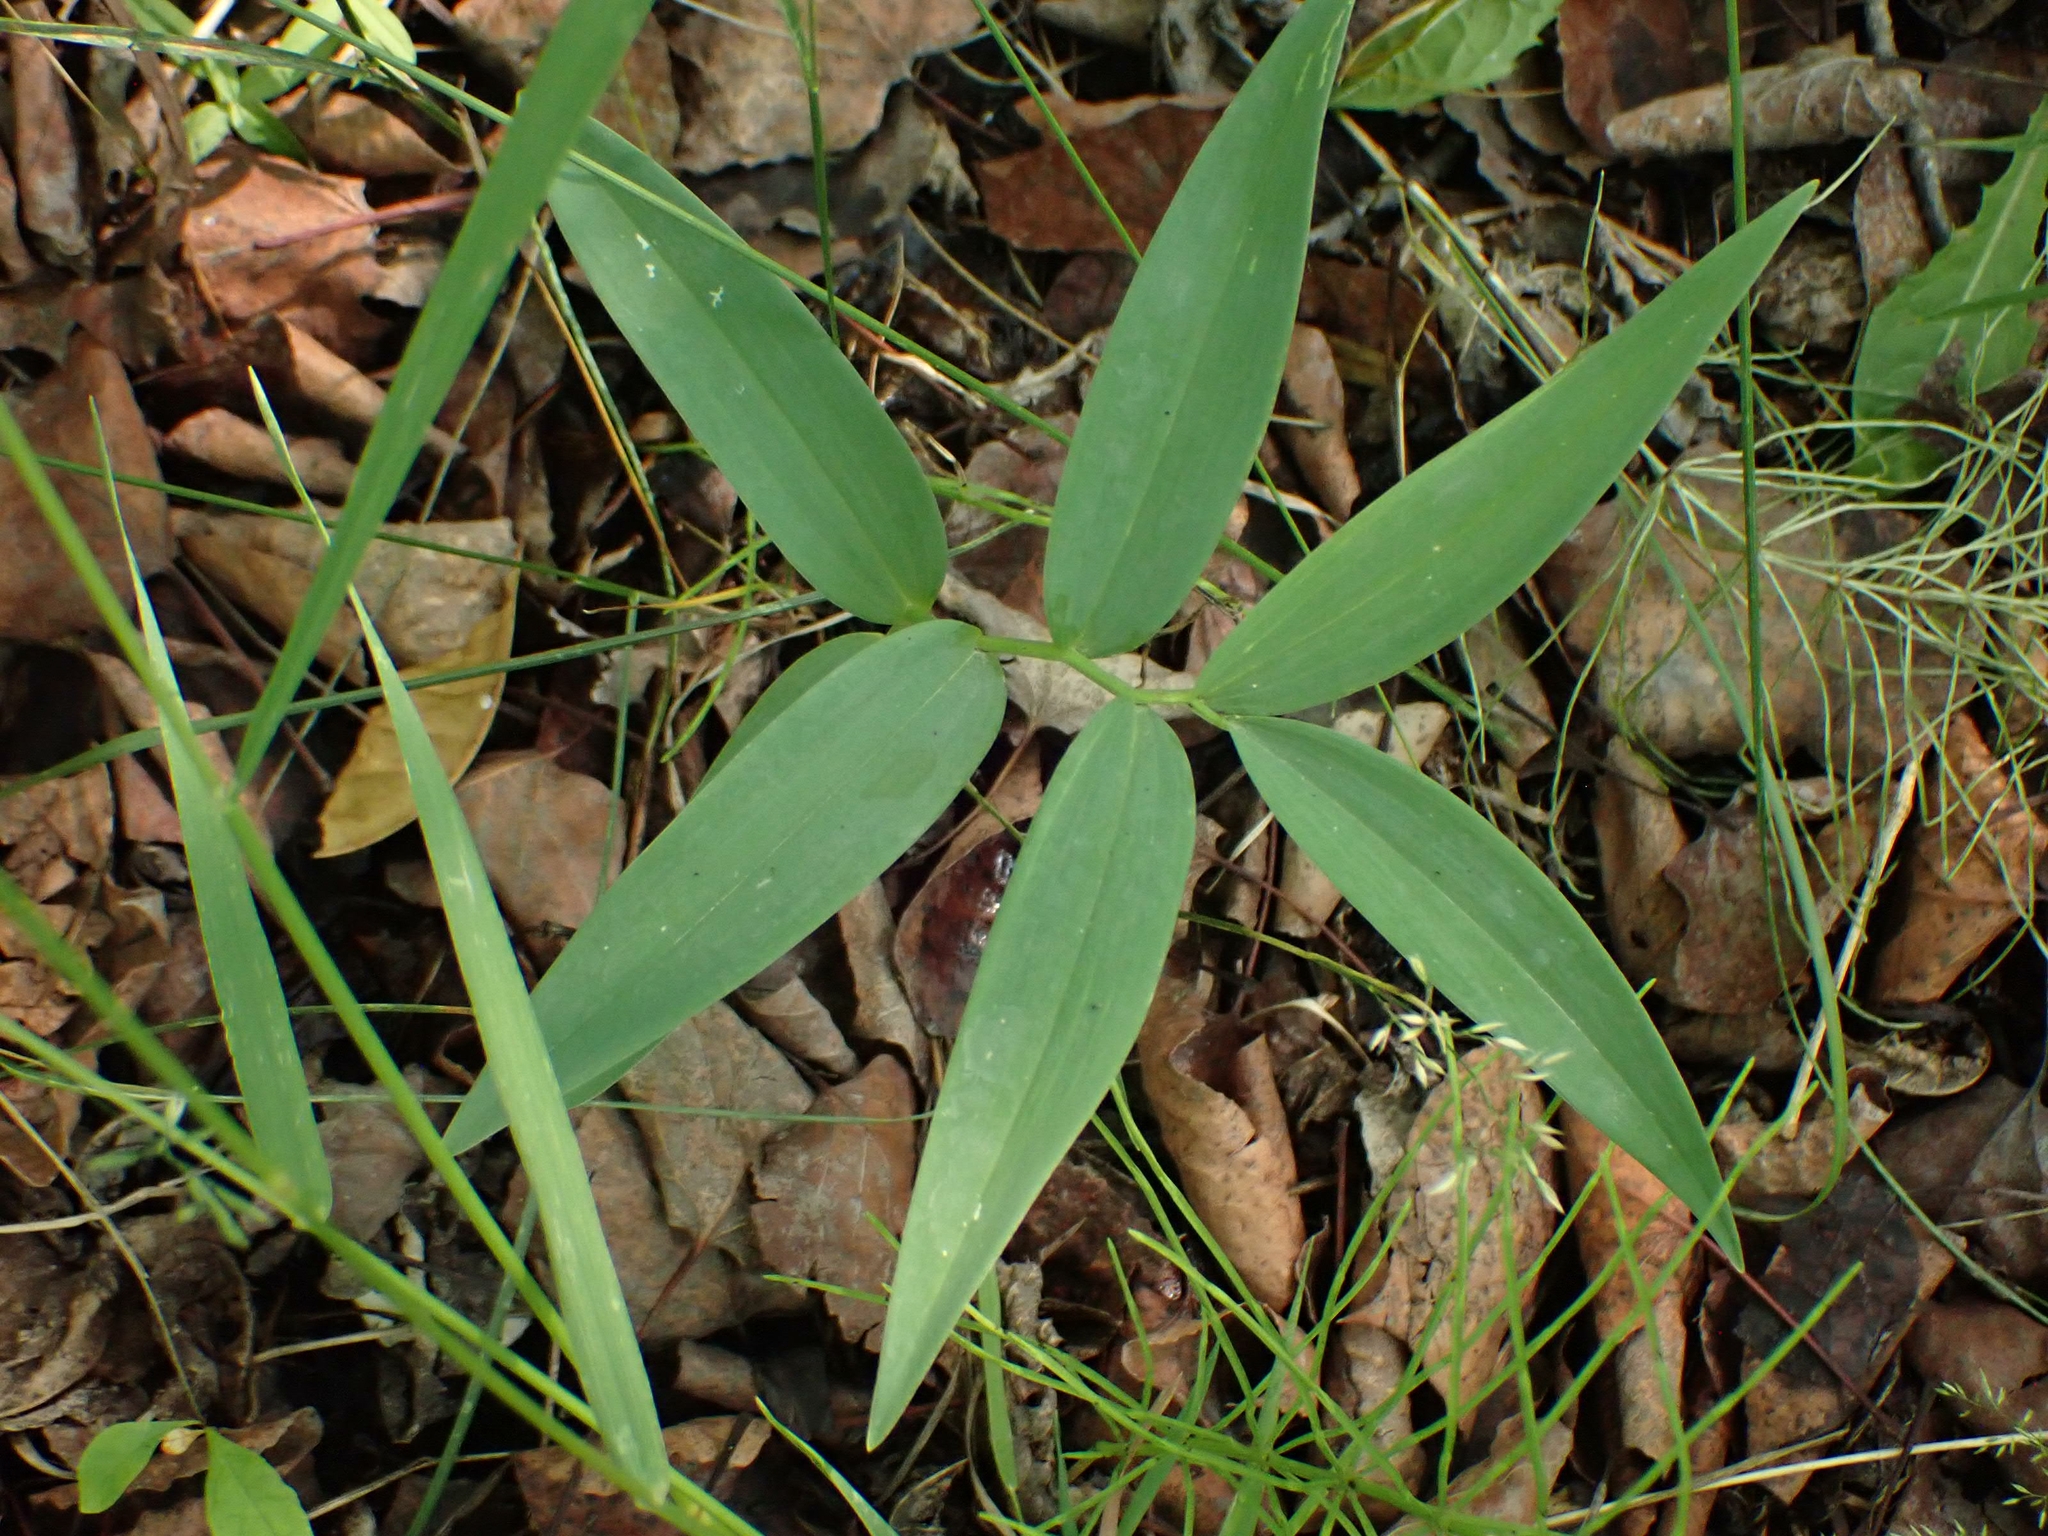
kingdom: Plantae
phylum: Tracheophyta
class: Liliopsida
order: Asparagales
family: Asparagaceae
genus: Maianthemum
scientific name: Maianthemum stellatum
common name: Little false solomon's seal
